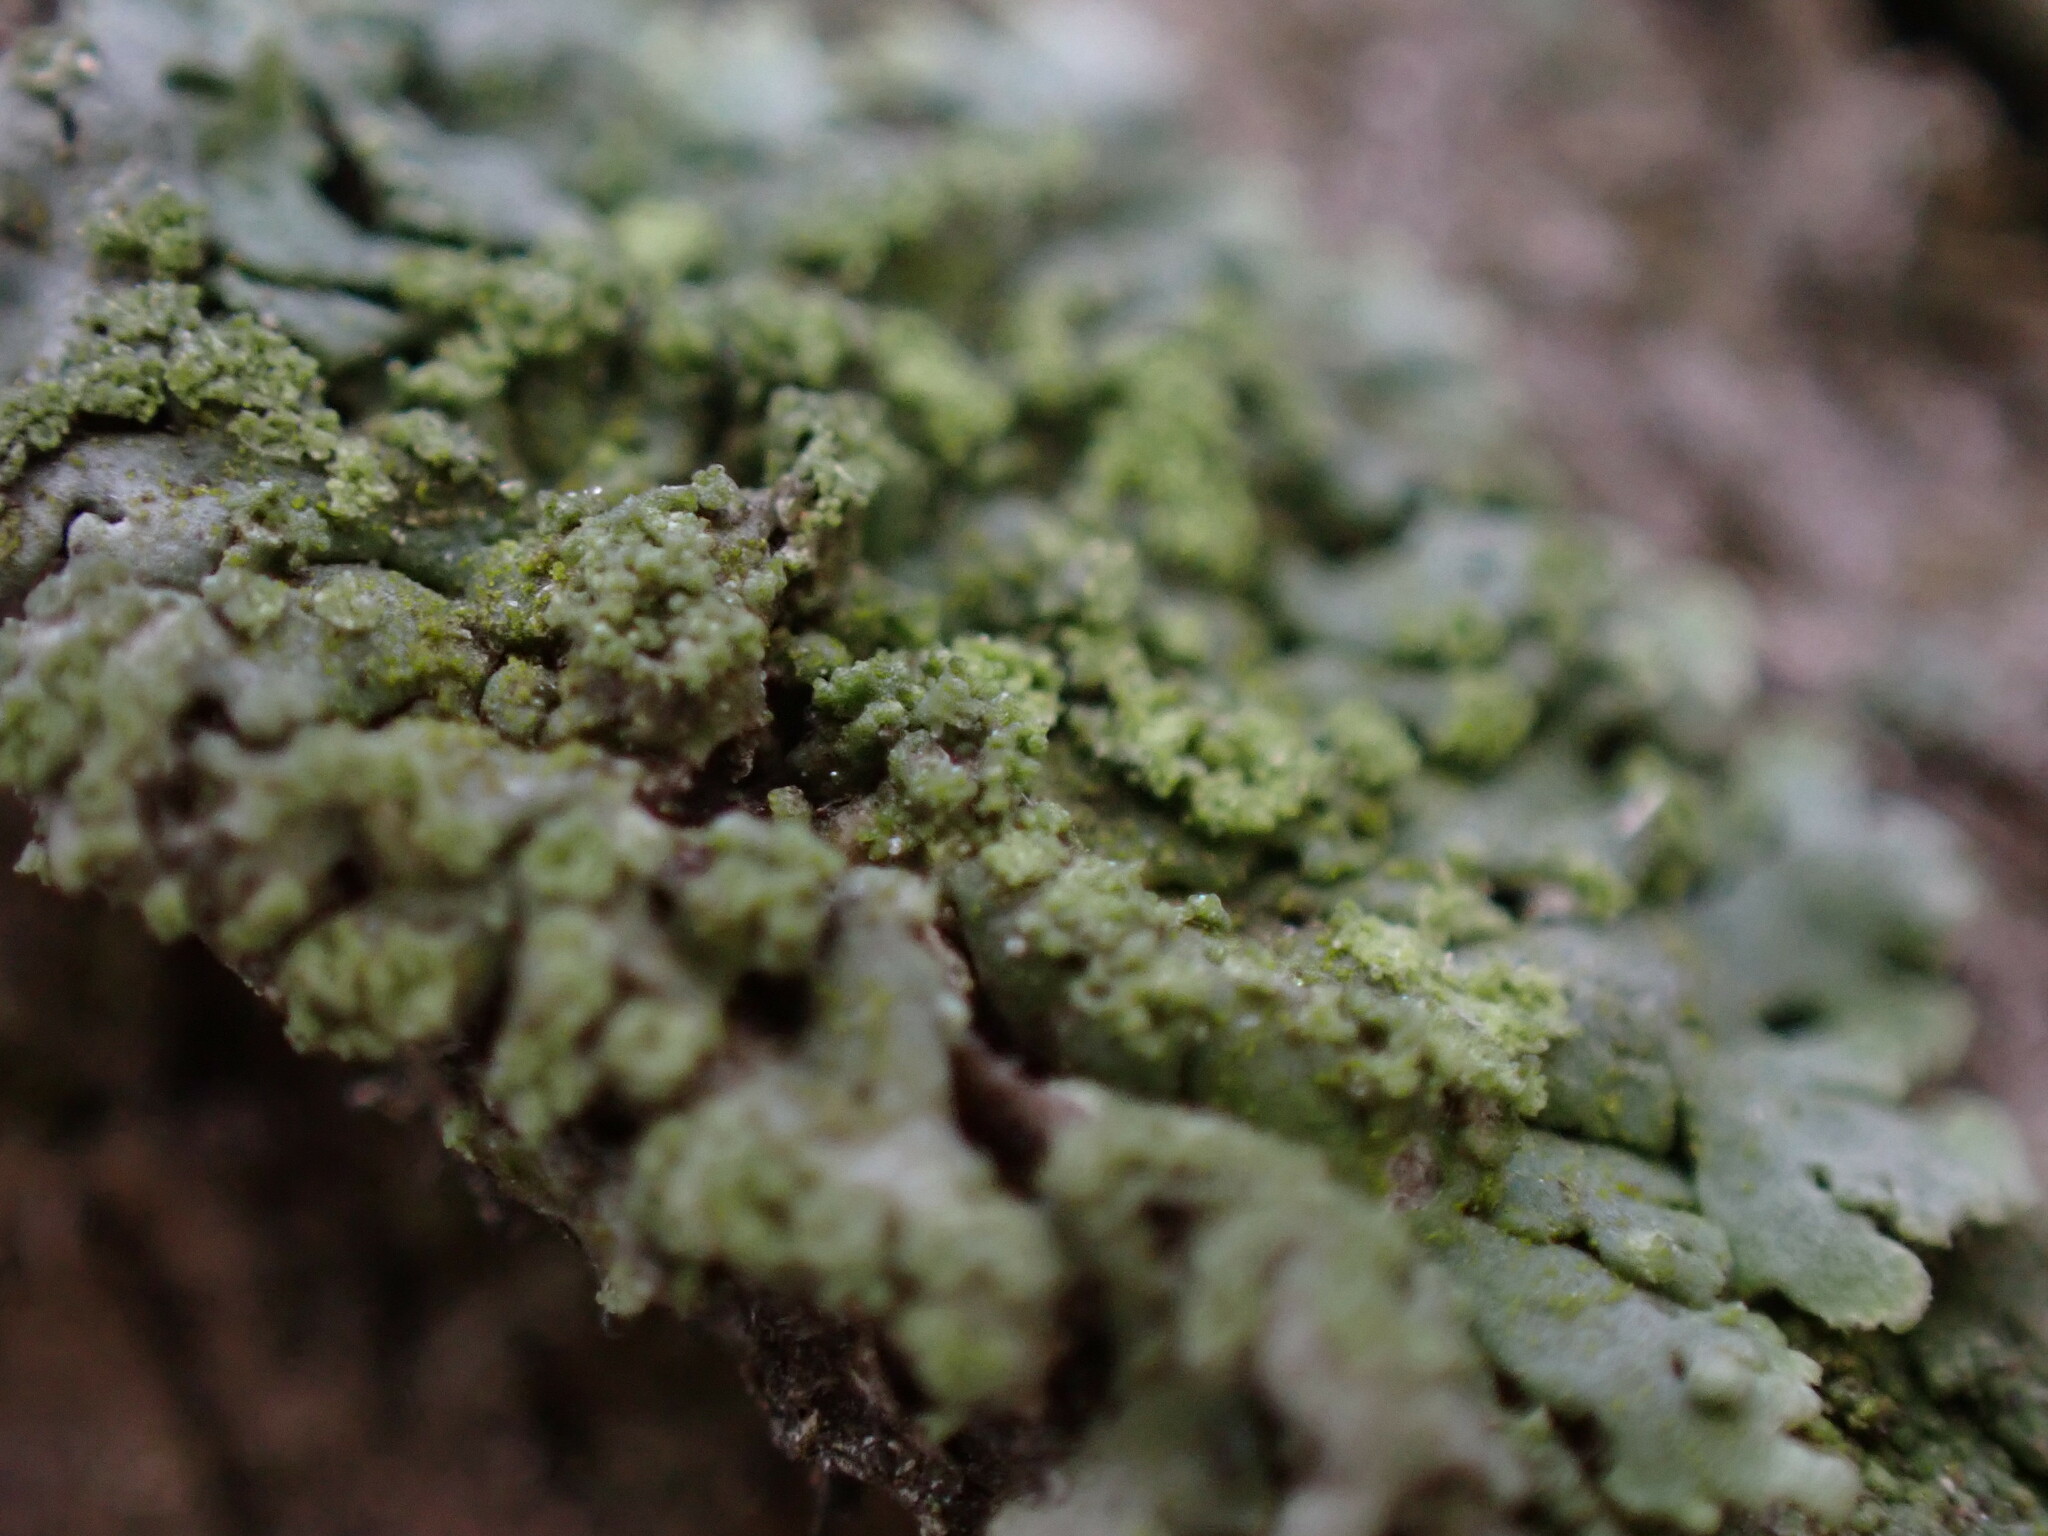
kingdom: Fungi
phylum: Ascomycota
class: Lecanoromycetes
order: Caliciales
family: Physciaceae
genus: Phaeophyscia
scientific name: Phaeophyscia orbicularis
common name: Mealy shadow lichen
